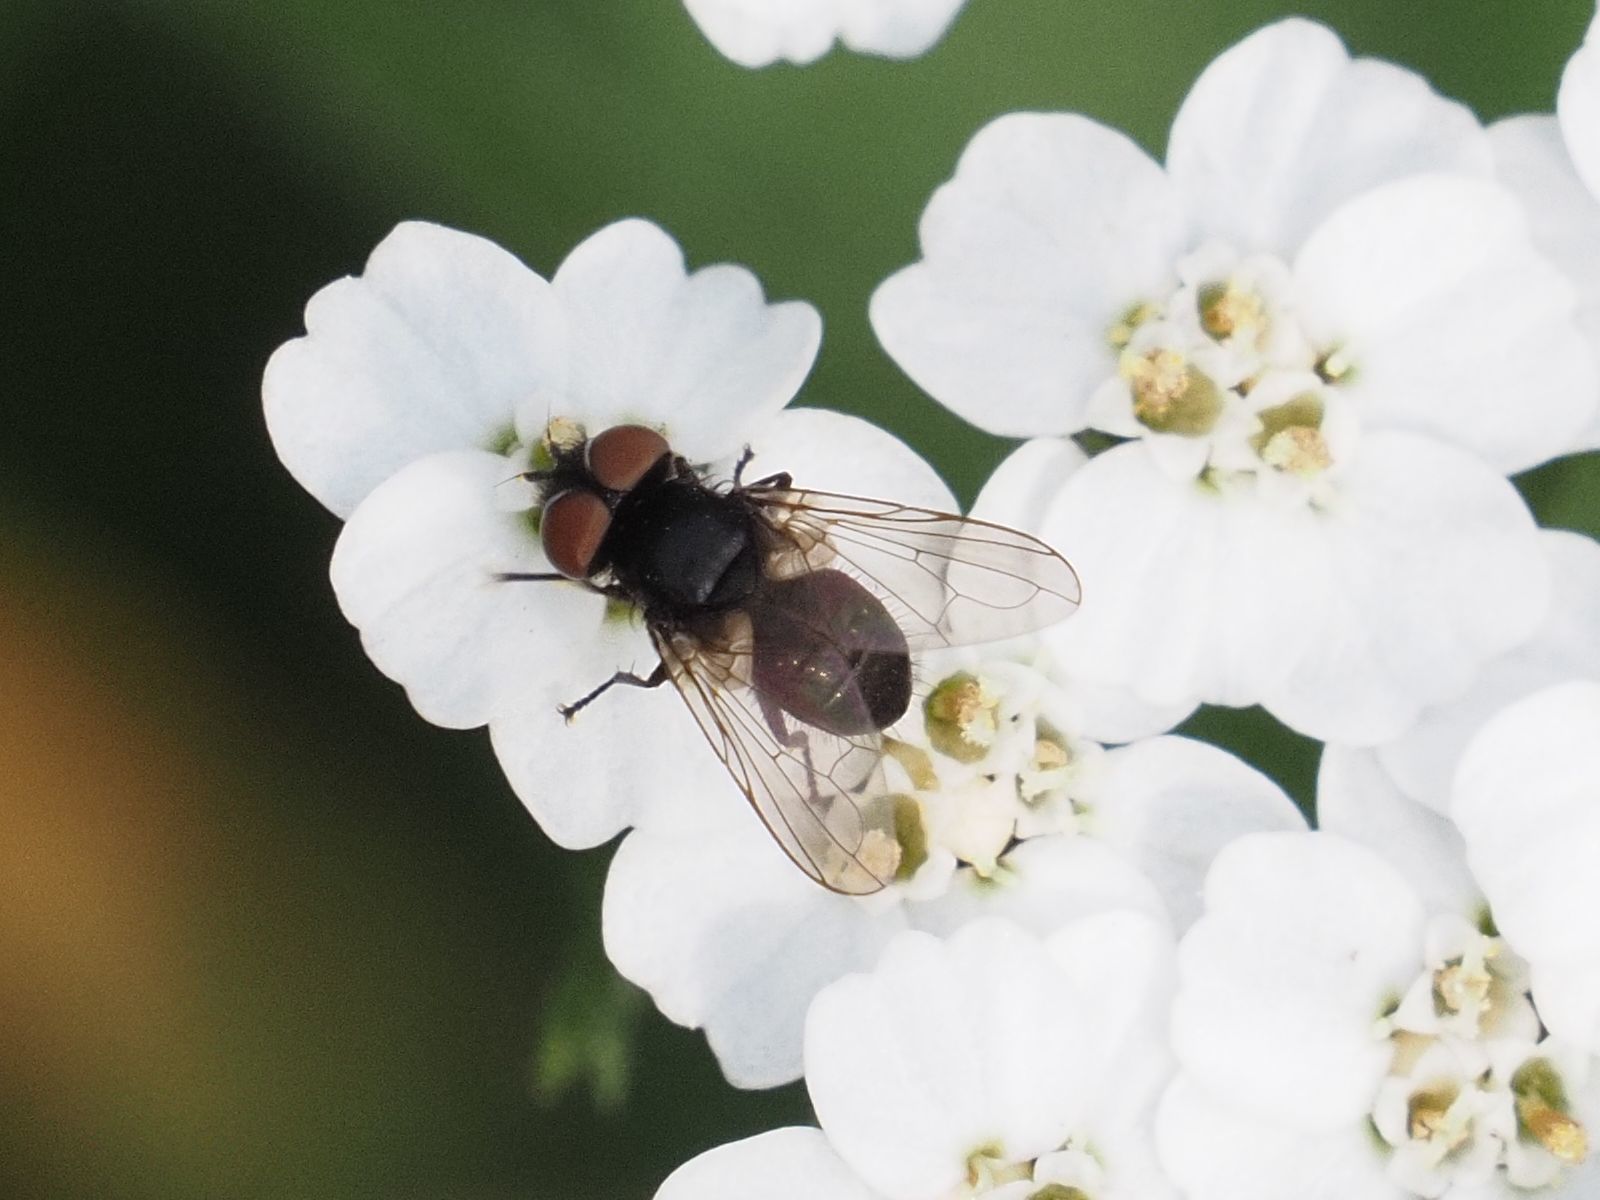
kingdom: Animalia
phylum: Arthropoda
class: Insecta
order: Diptera
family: Tachinidae
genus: Phasia
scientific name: Phasia pusilla
